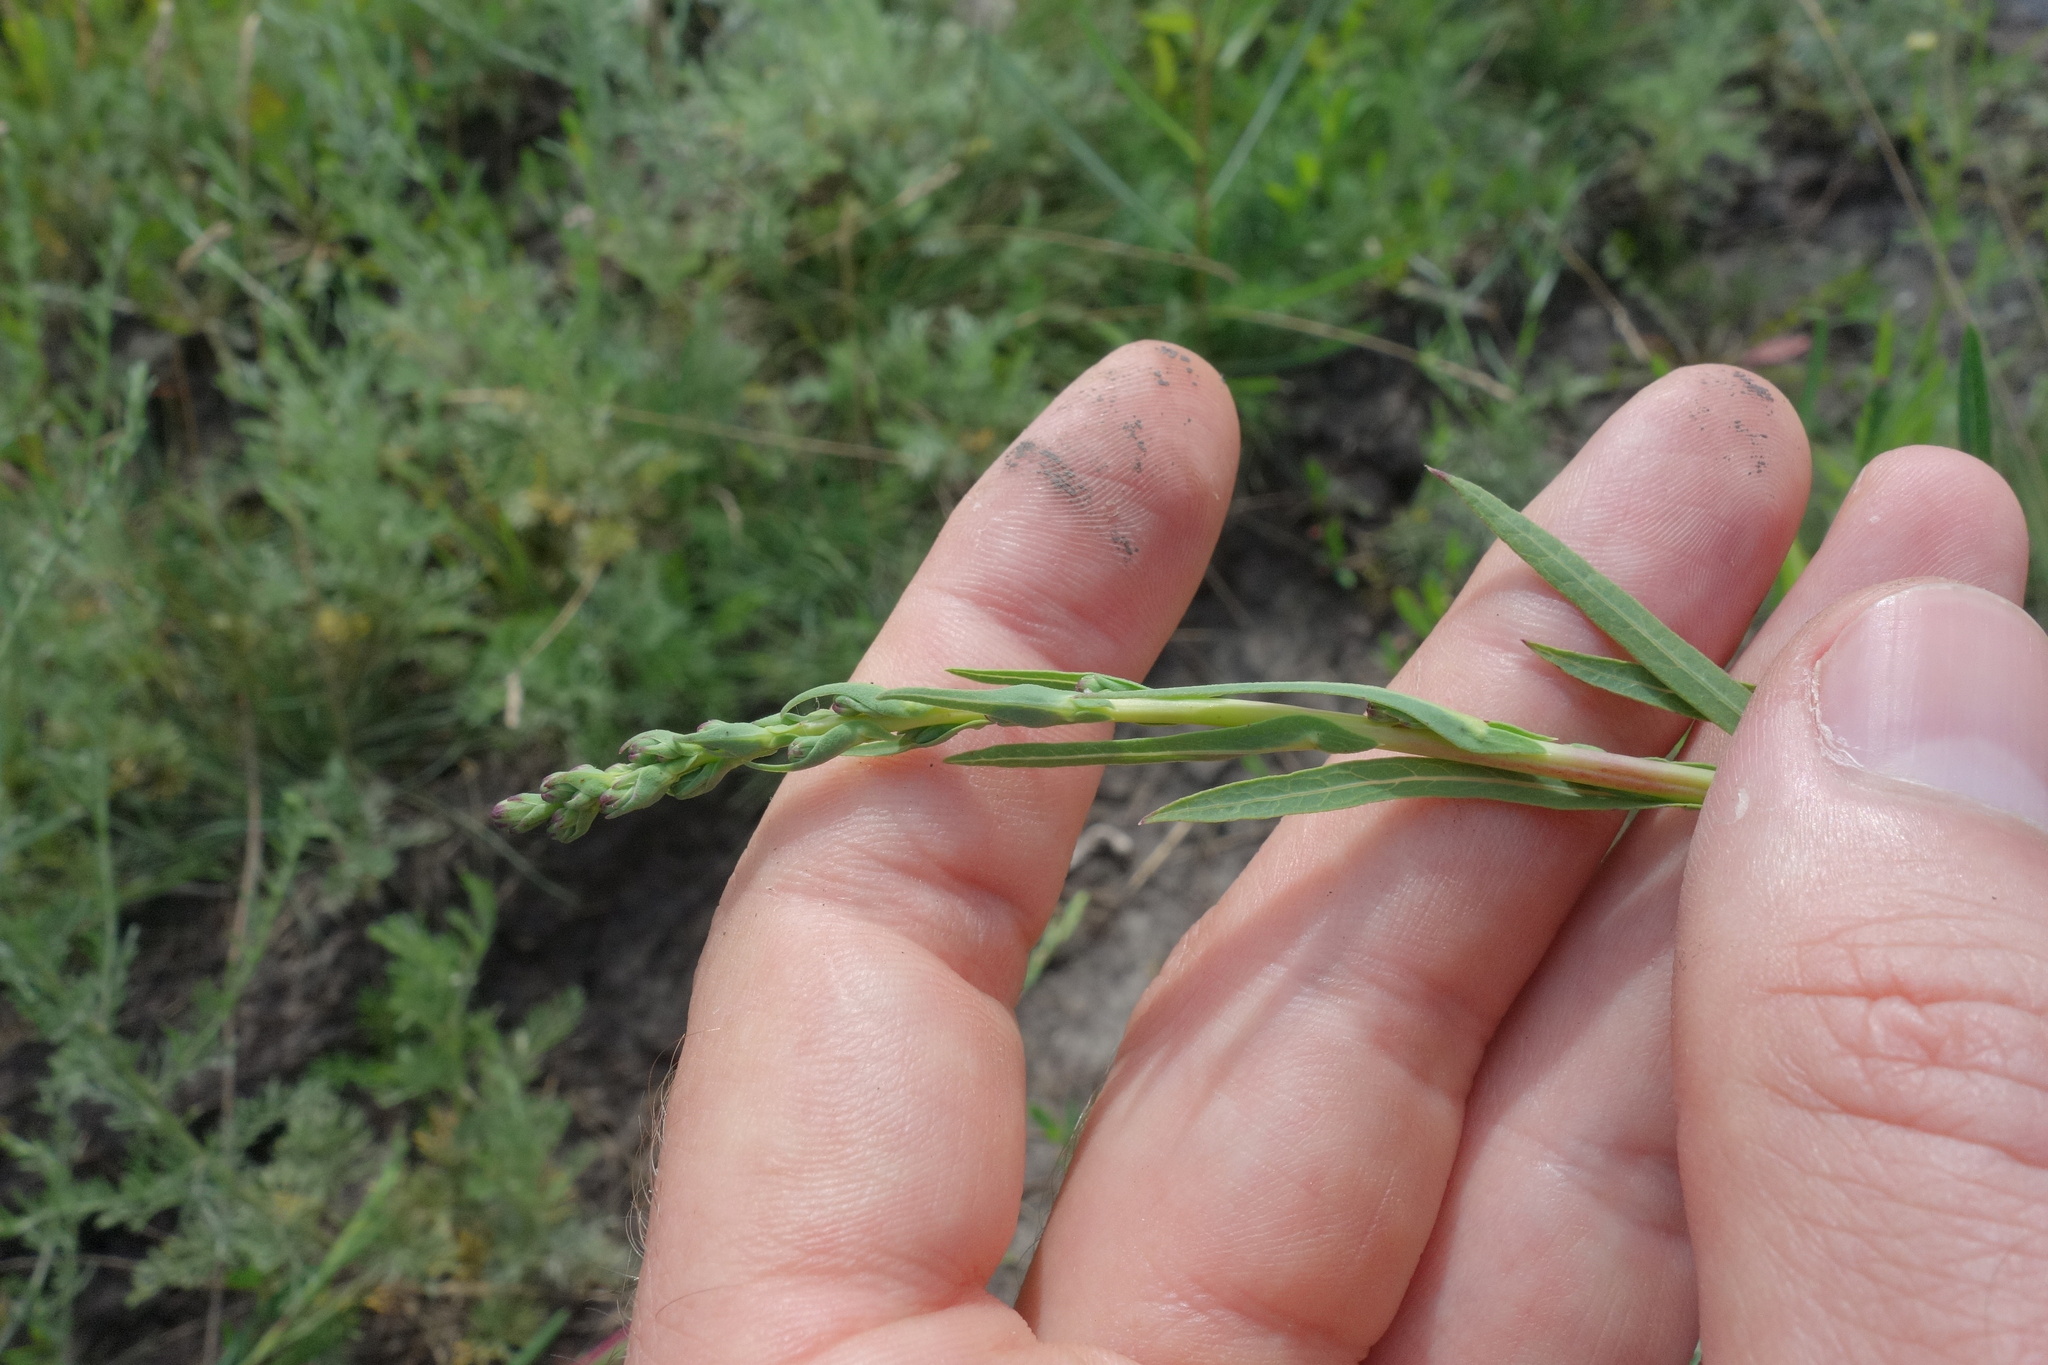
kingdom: Plantae
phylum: Tracheophyta
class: Magnoliopsida
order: Asterales
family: Asteraceae
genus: Lactuca
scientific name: Lactuca saligna
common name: Wild lettuce
